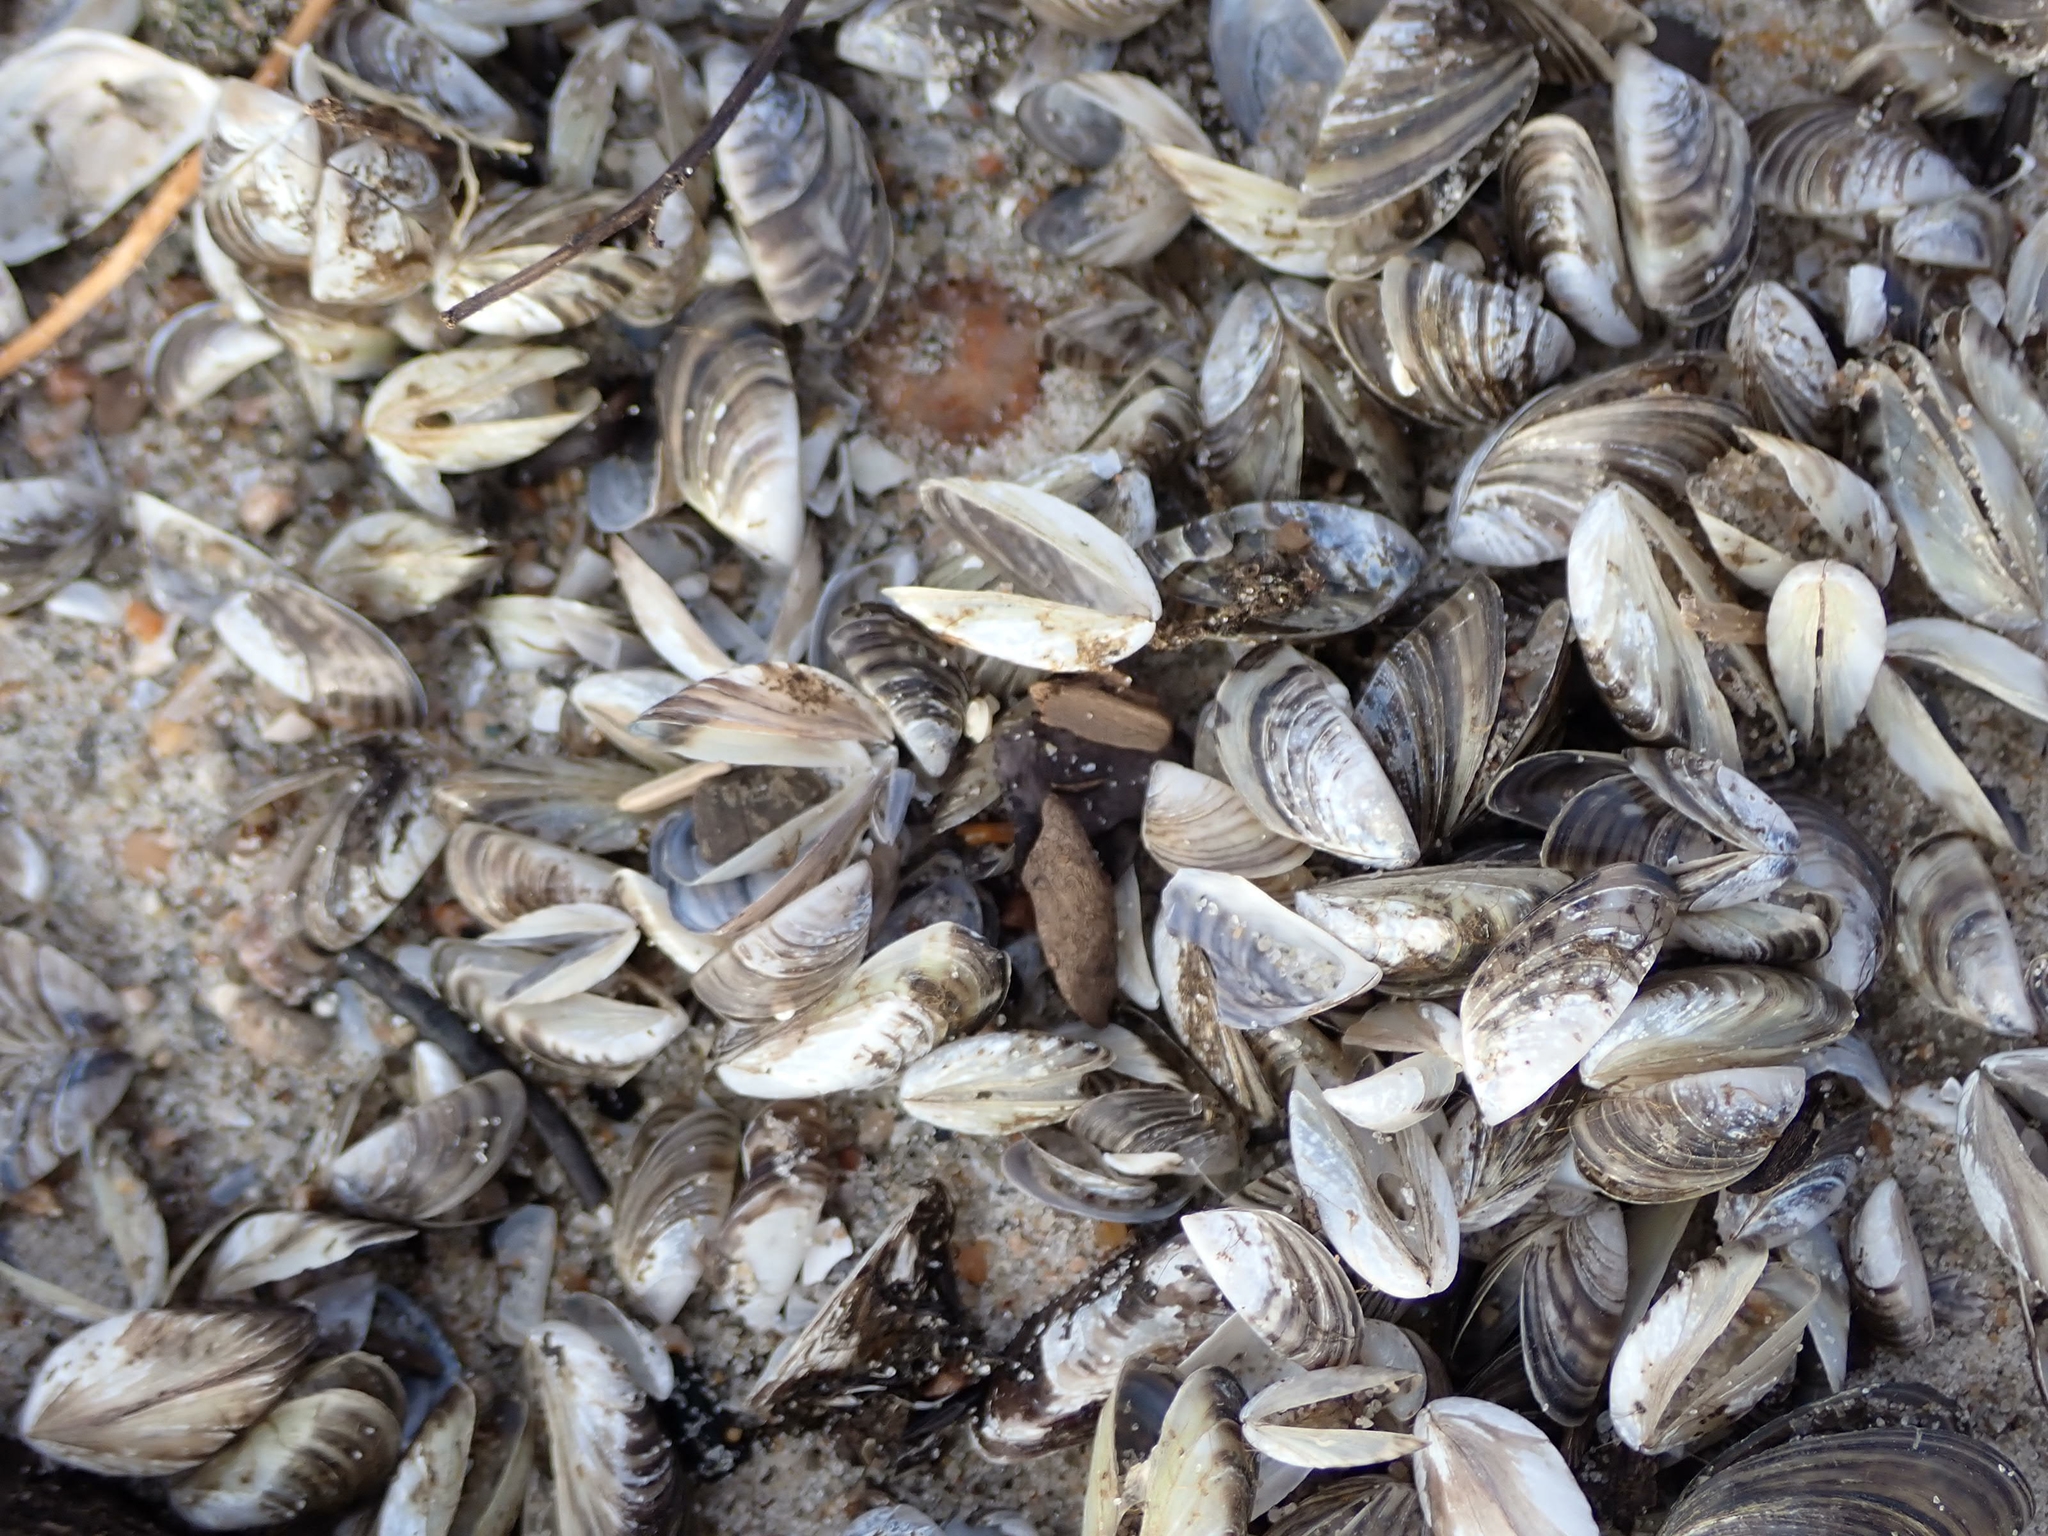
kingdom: Animalia
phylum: Mollusca
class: Bivalvia
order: Myida
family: Dreissenidae
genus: Dreissena
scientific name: Dreissena polymorpha
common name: Zebra mussel
